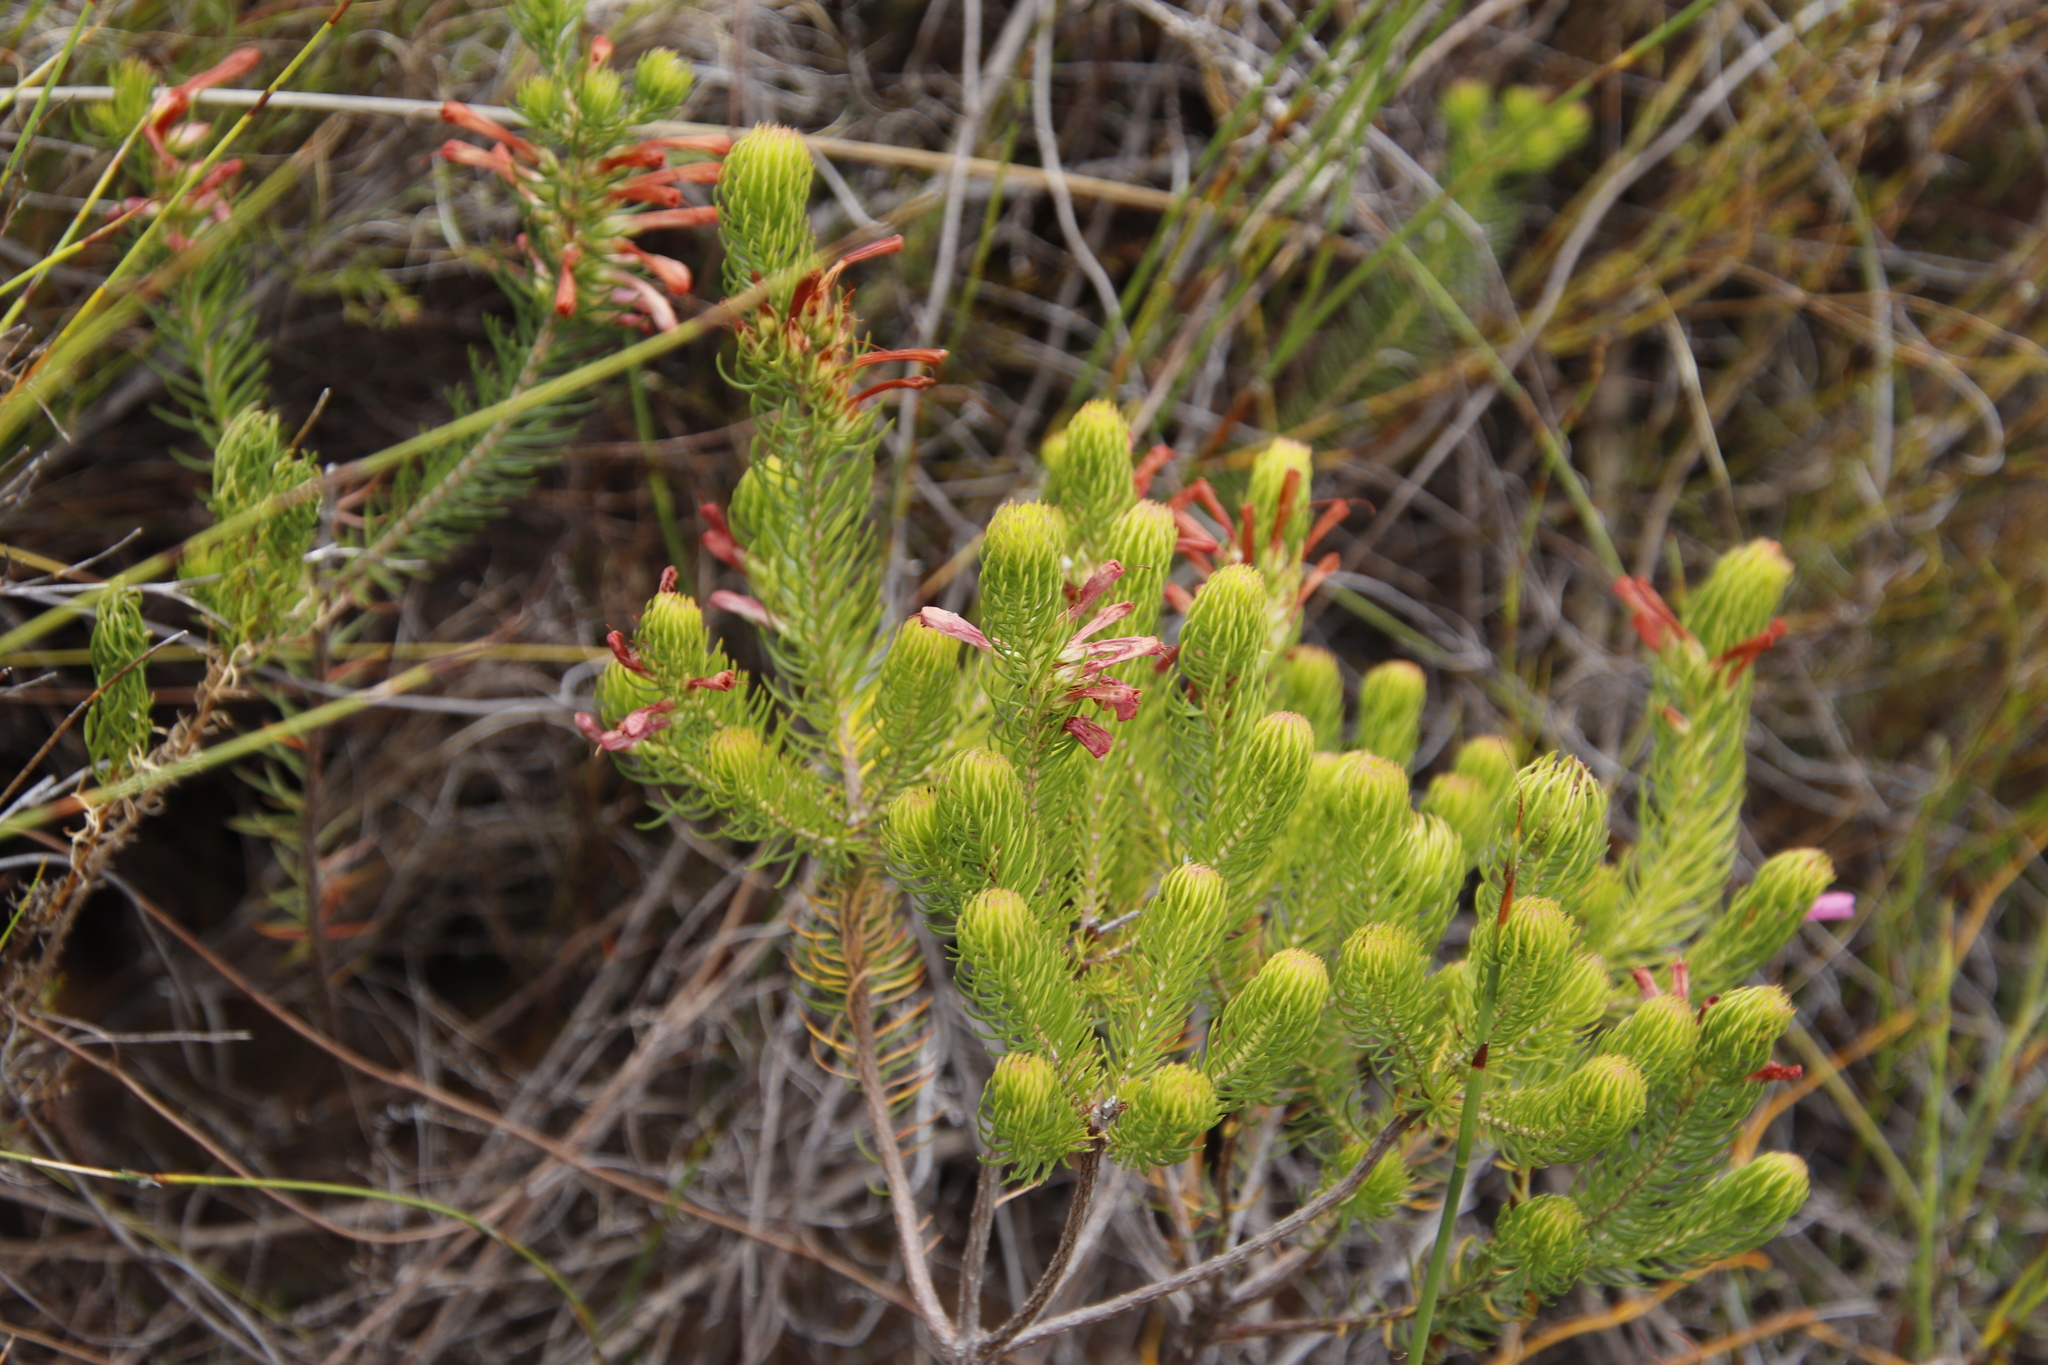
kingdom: Plantae
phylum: Tracheophyta
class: Magnoliopsida
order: Ericales
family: Ericaceae
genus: Erica
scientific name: Erica abietina
